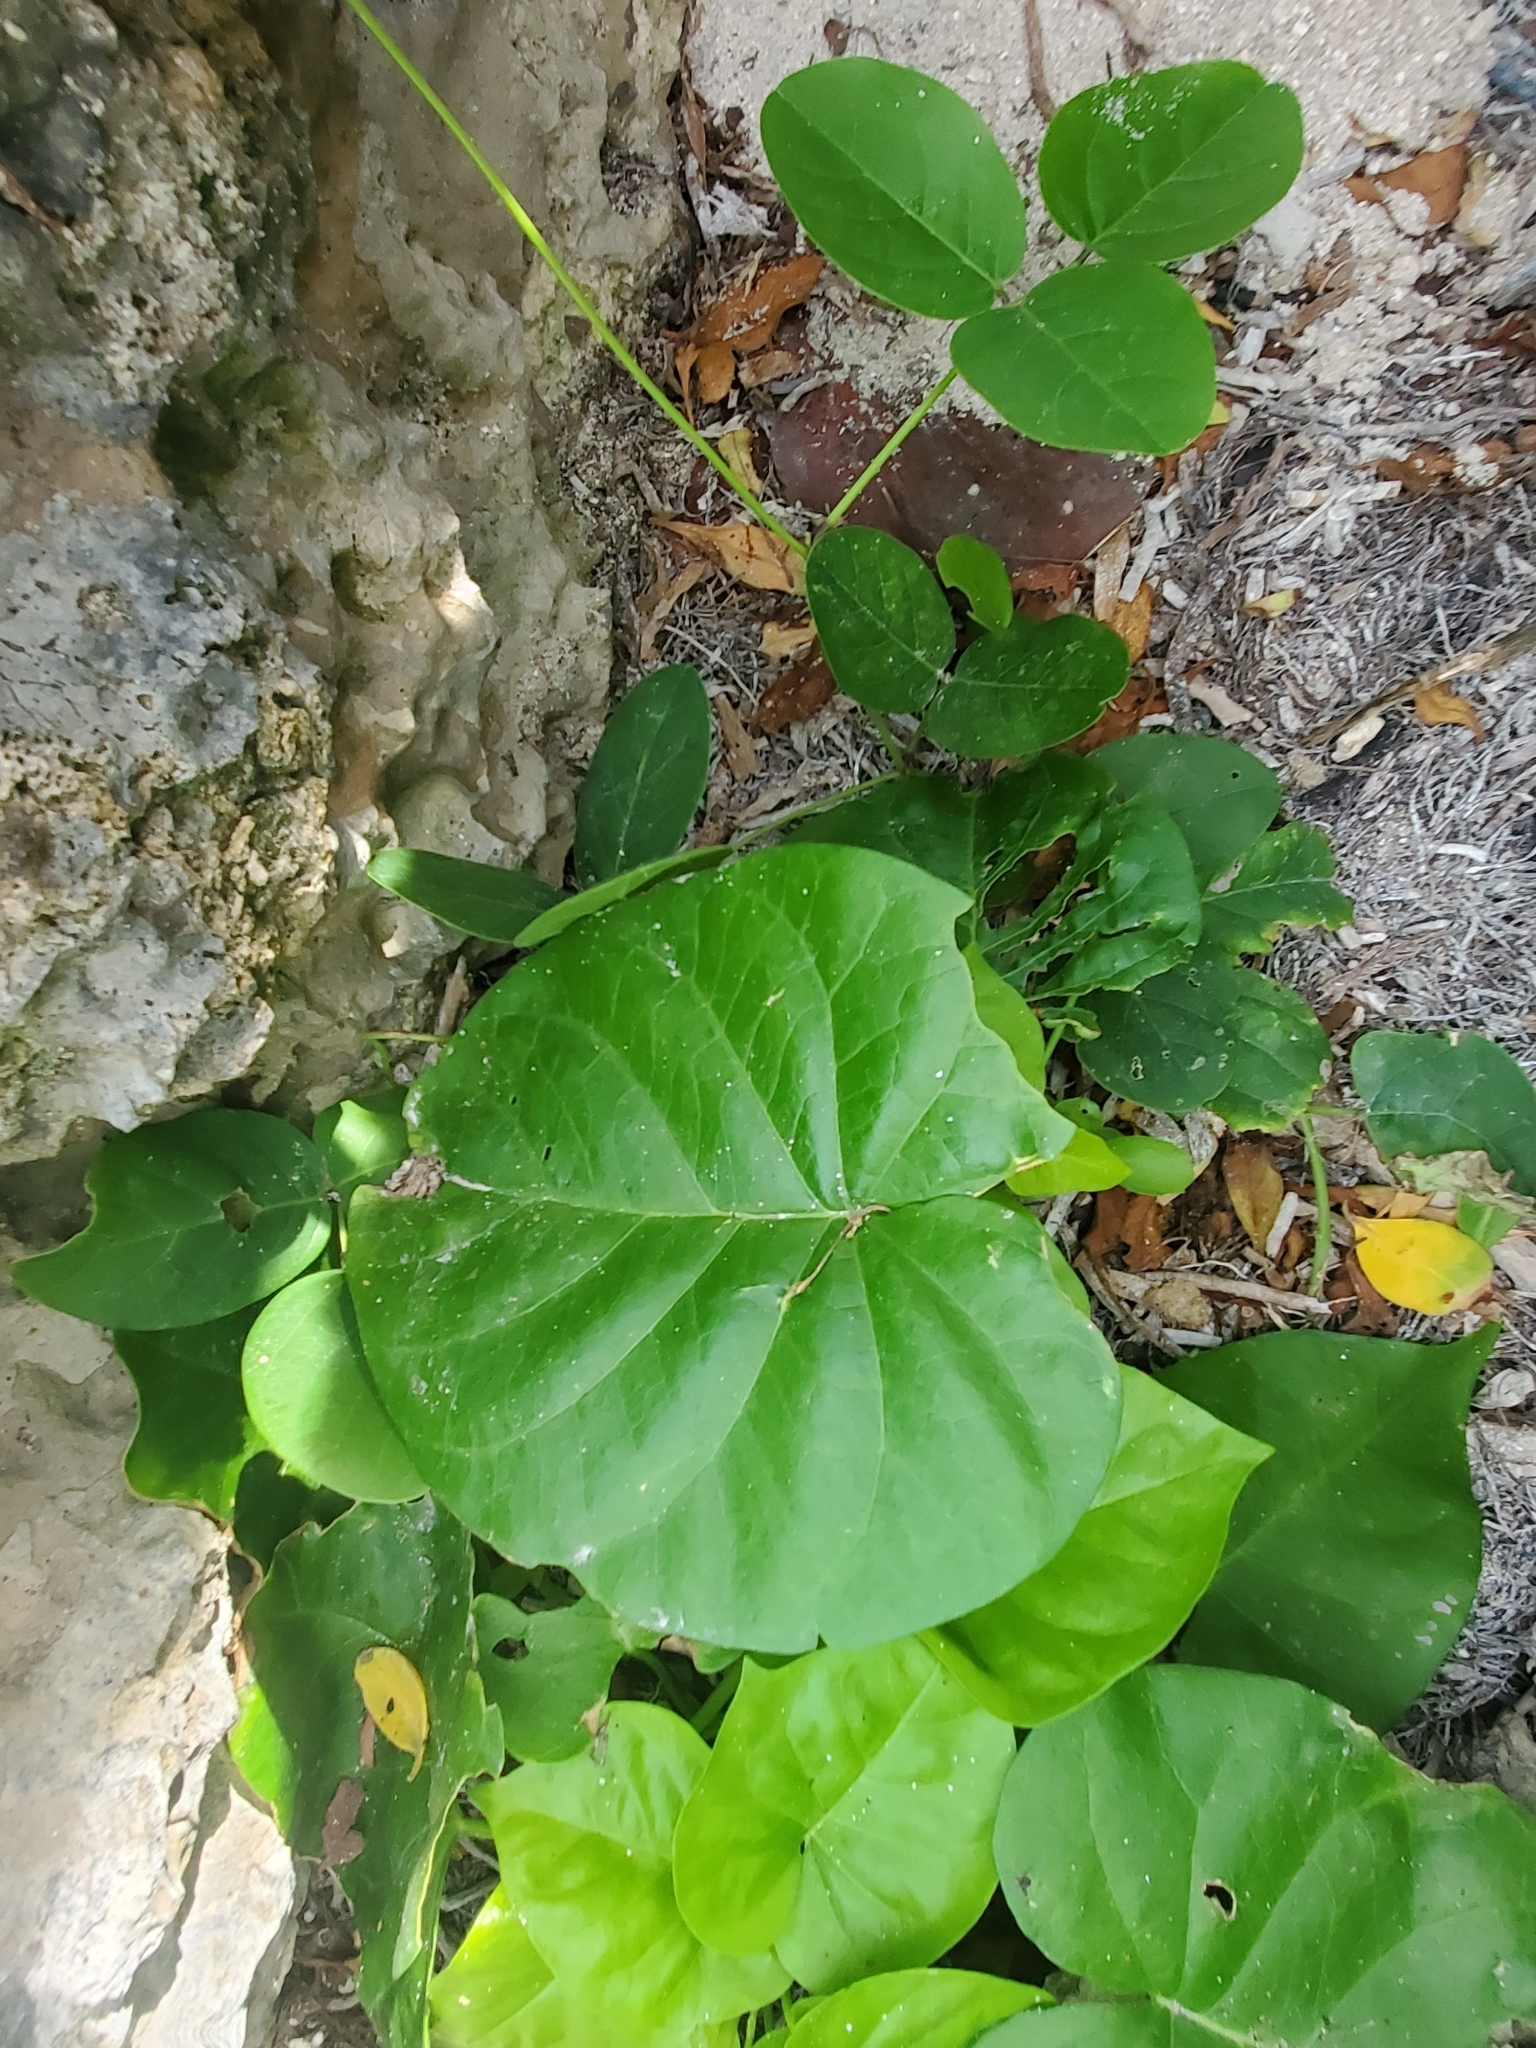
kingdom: Plantae
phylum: Tracheophyta
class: Magnoliopsida
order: Solanales
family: Convolvulaceae
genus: Ipomoea
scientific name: Ipomoea violacea
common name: Beach moonflower
